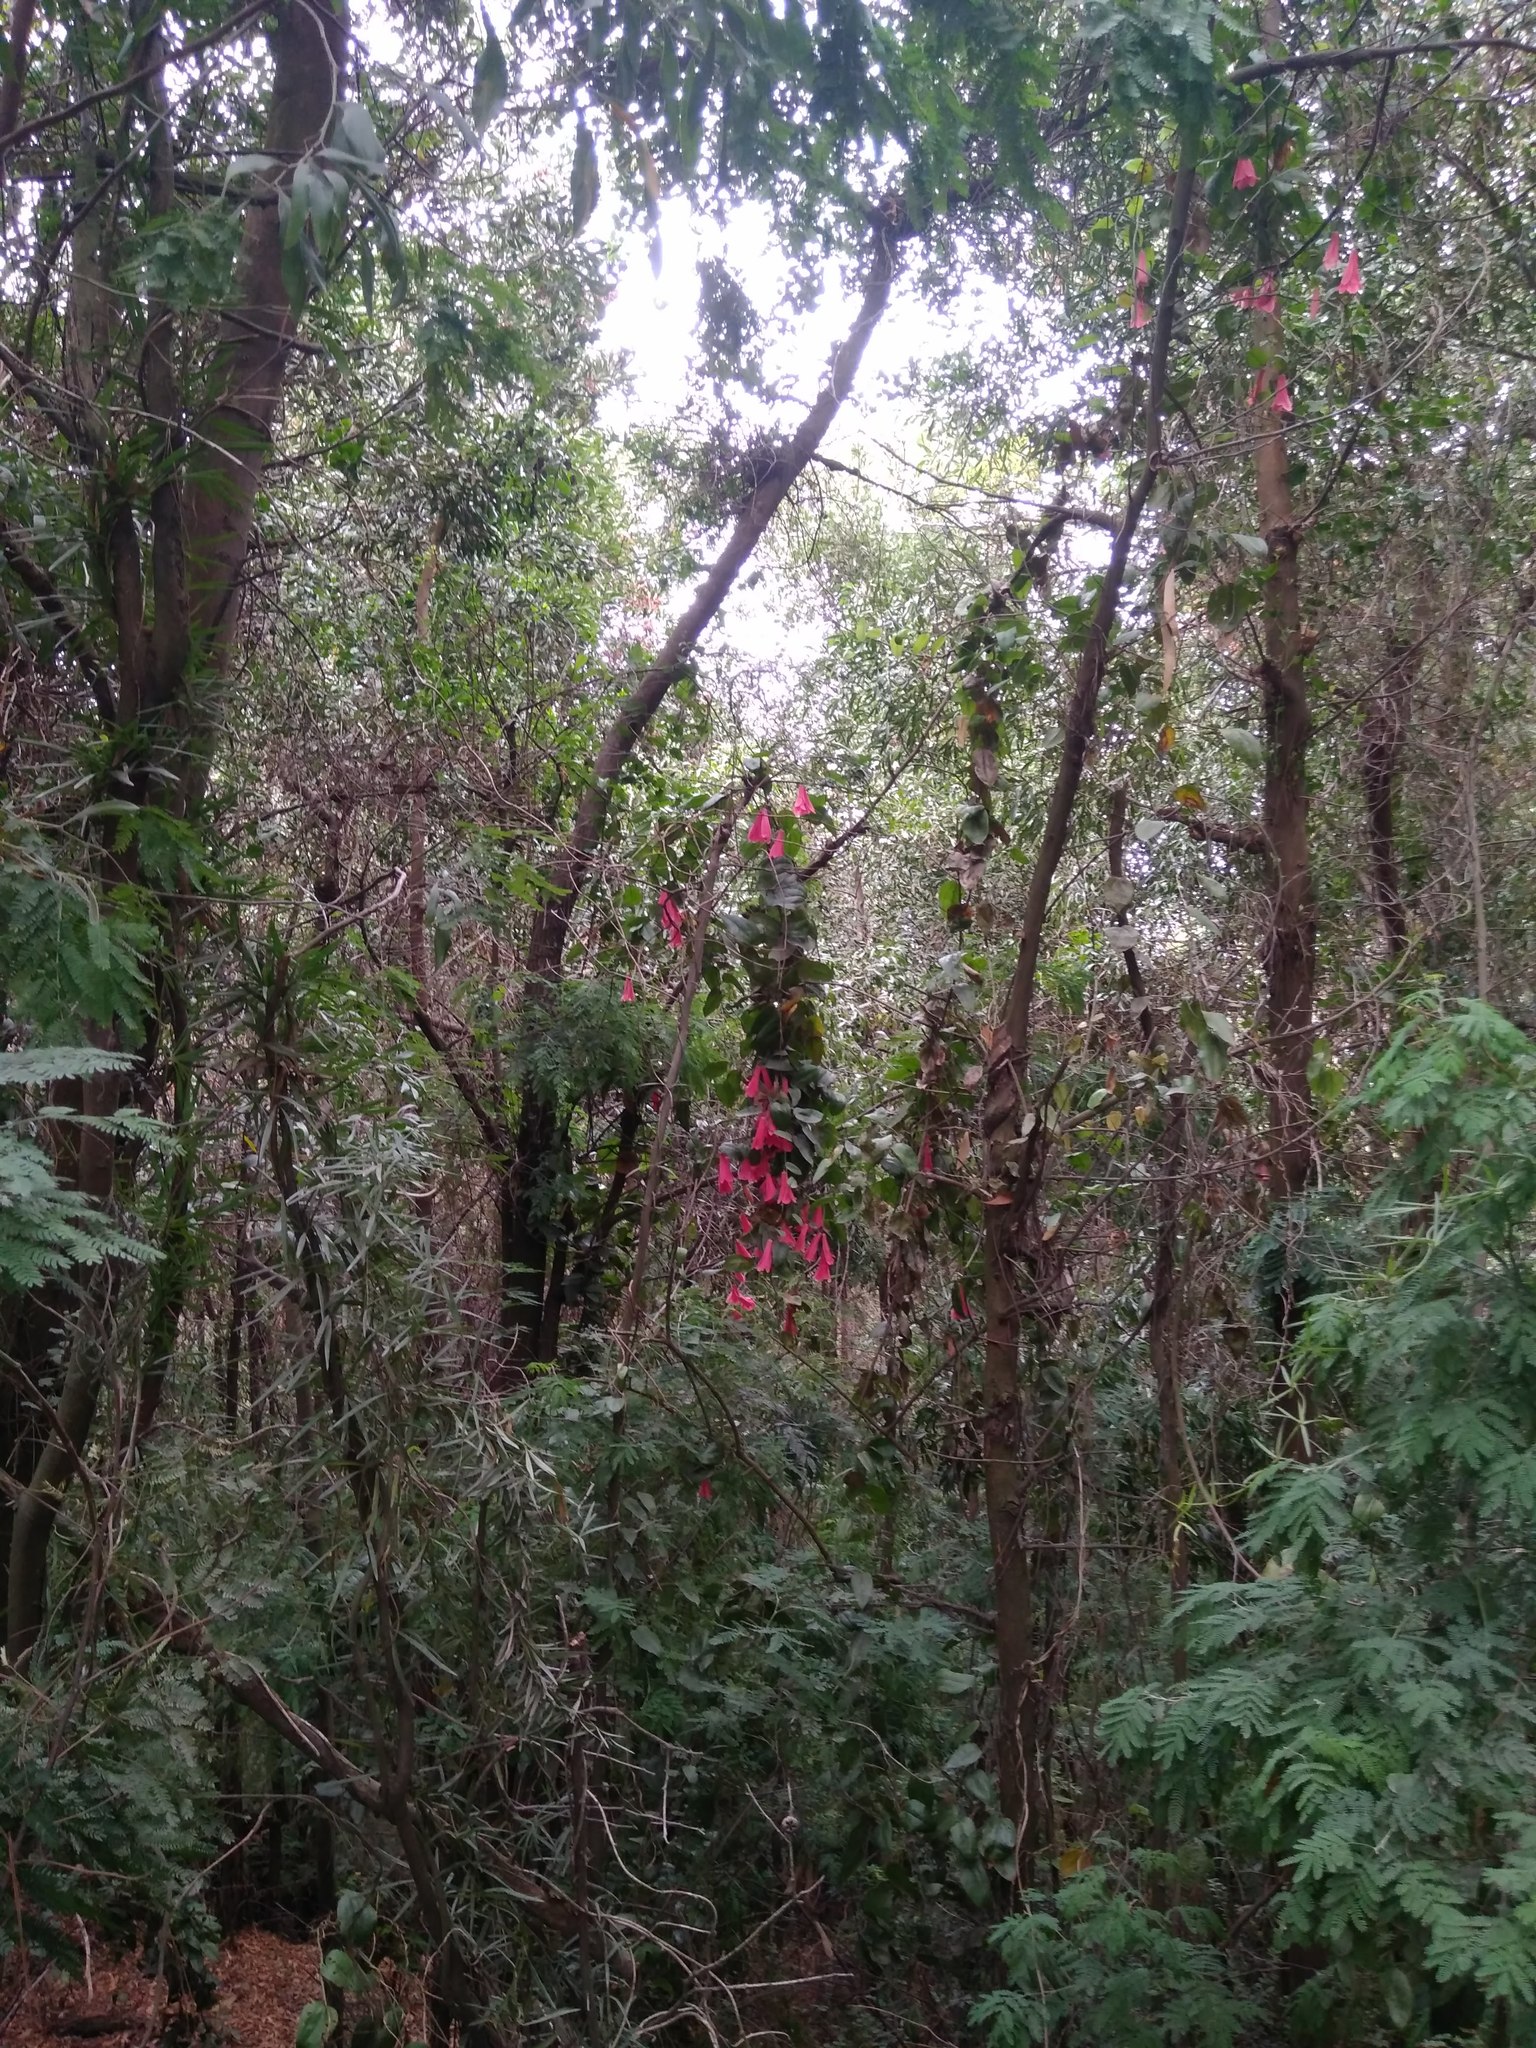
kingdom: Plantae
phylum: Tracheophyta
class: Liliopsida
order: Liliales
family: Philesiaceae
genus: Lapageria
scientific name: Lapageria rosea
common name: Chilean-bellflower
